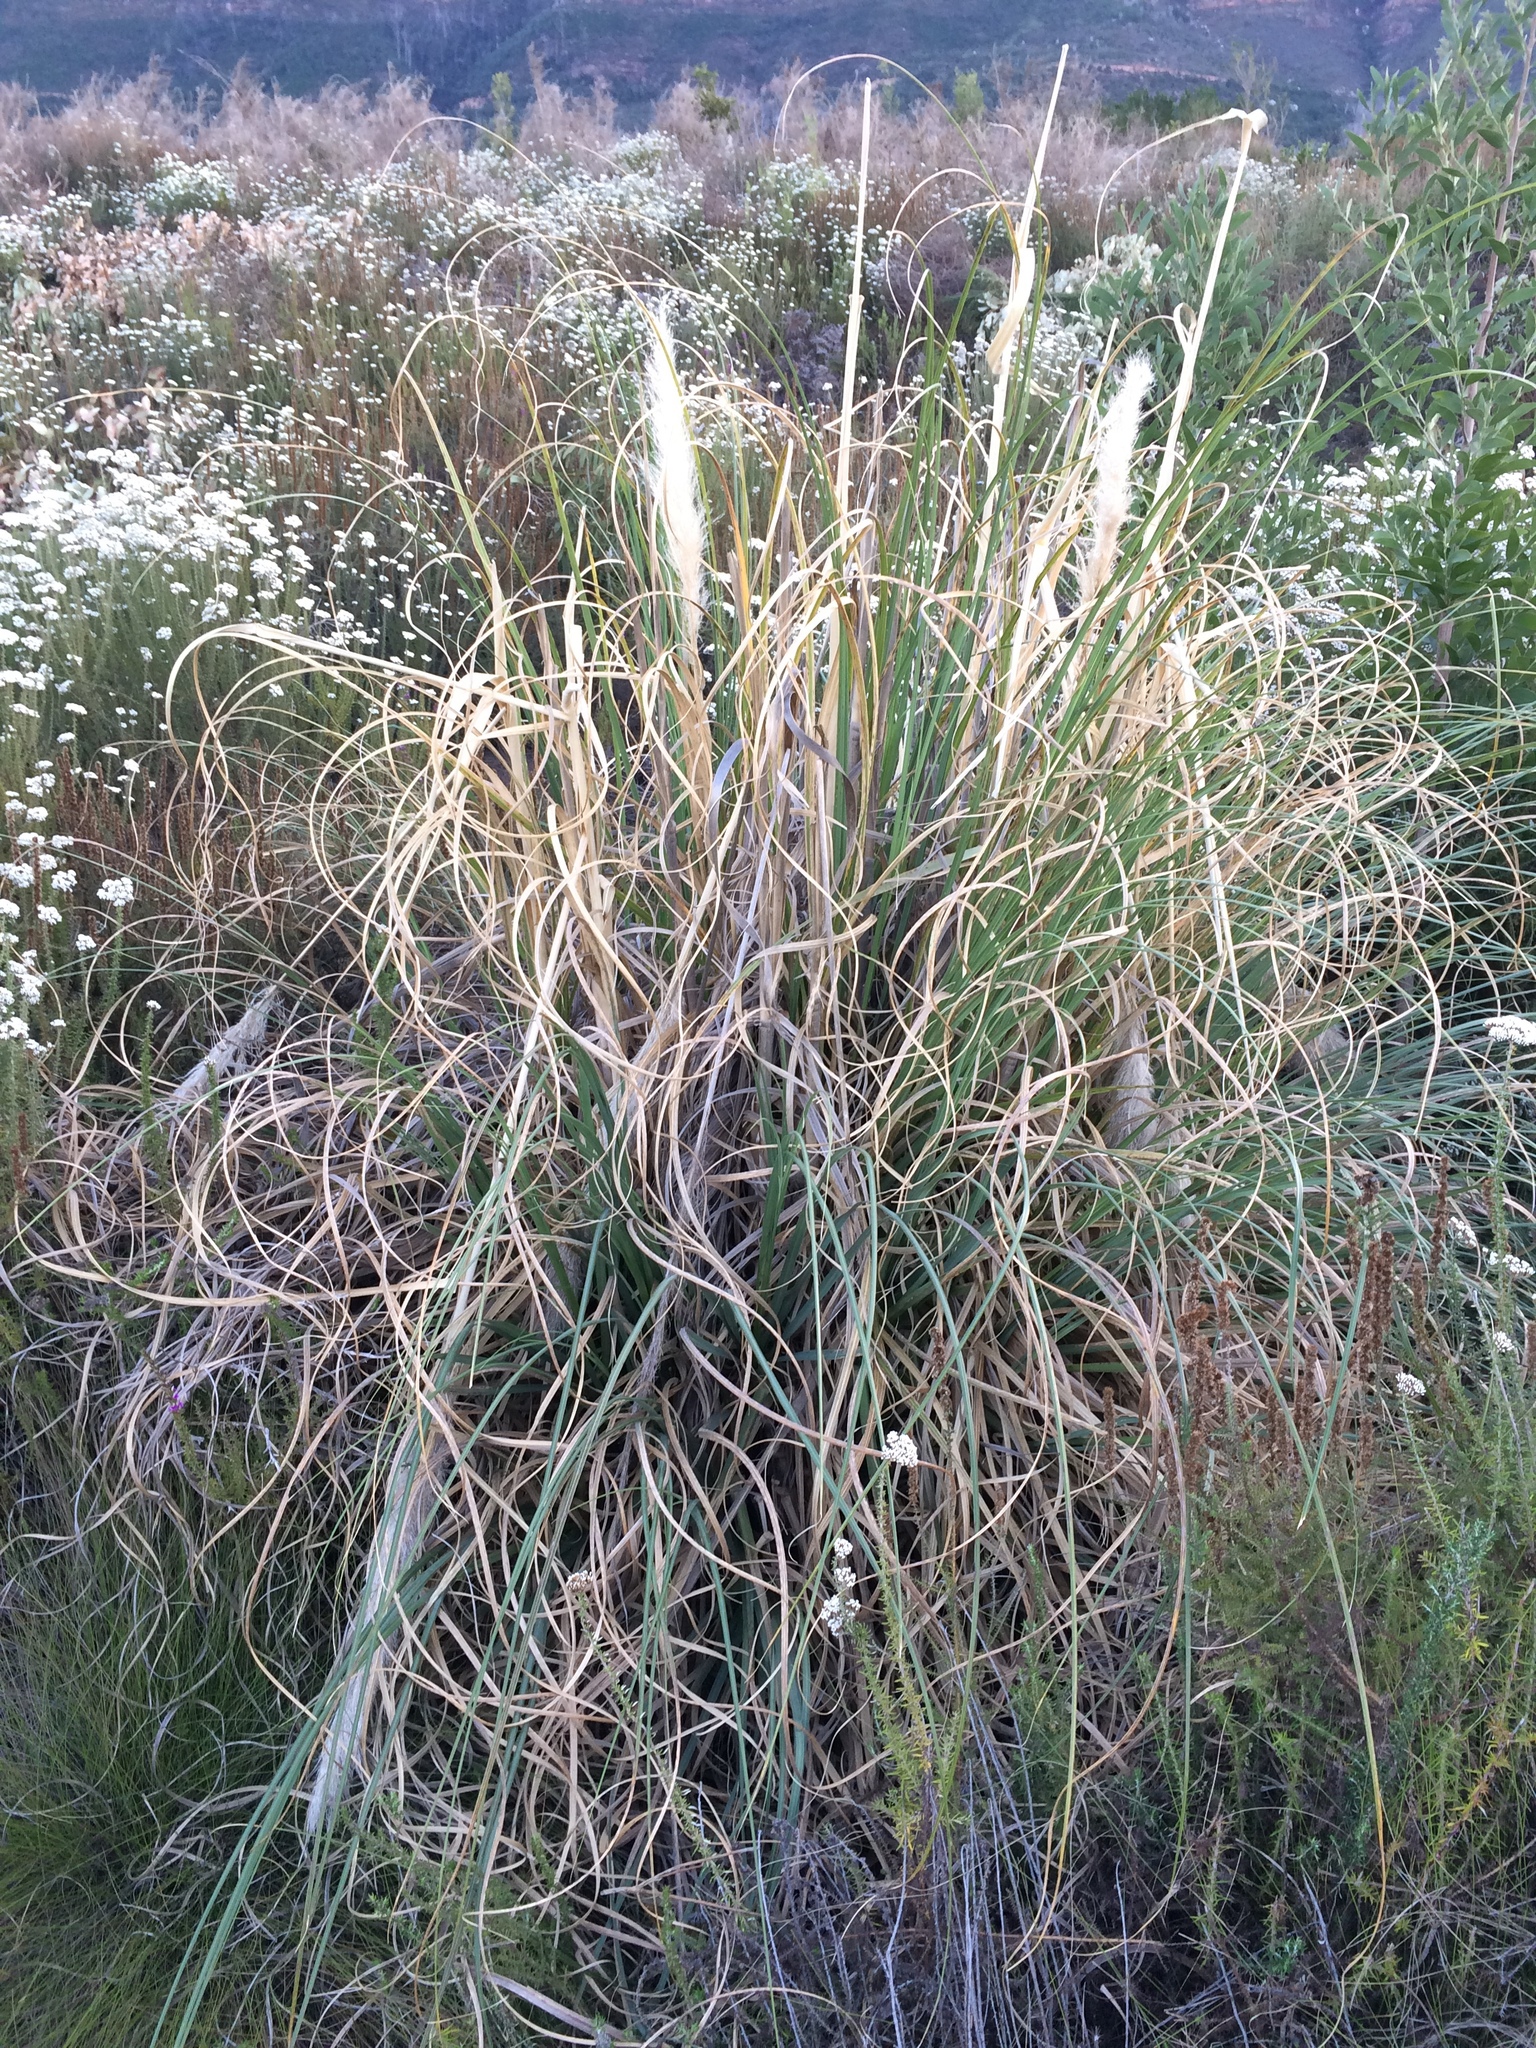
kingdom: Plantae
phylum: Tracheophyta
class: Liliopsida
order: Poales
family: Poaceae
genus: Cortaderia
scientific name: Cortaderia selloana
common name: Uruguayan pampas grass
